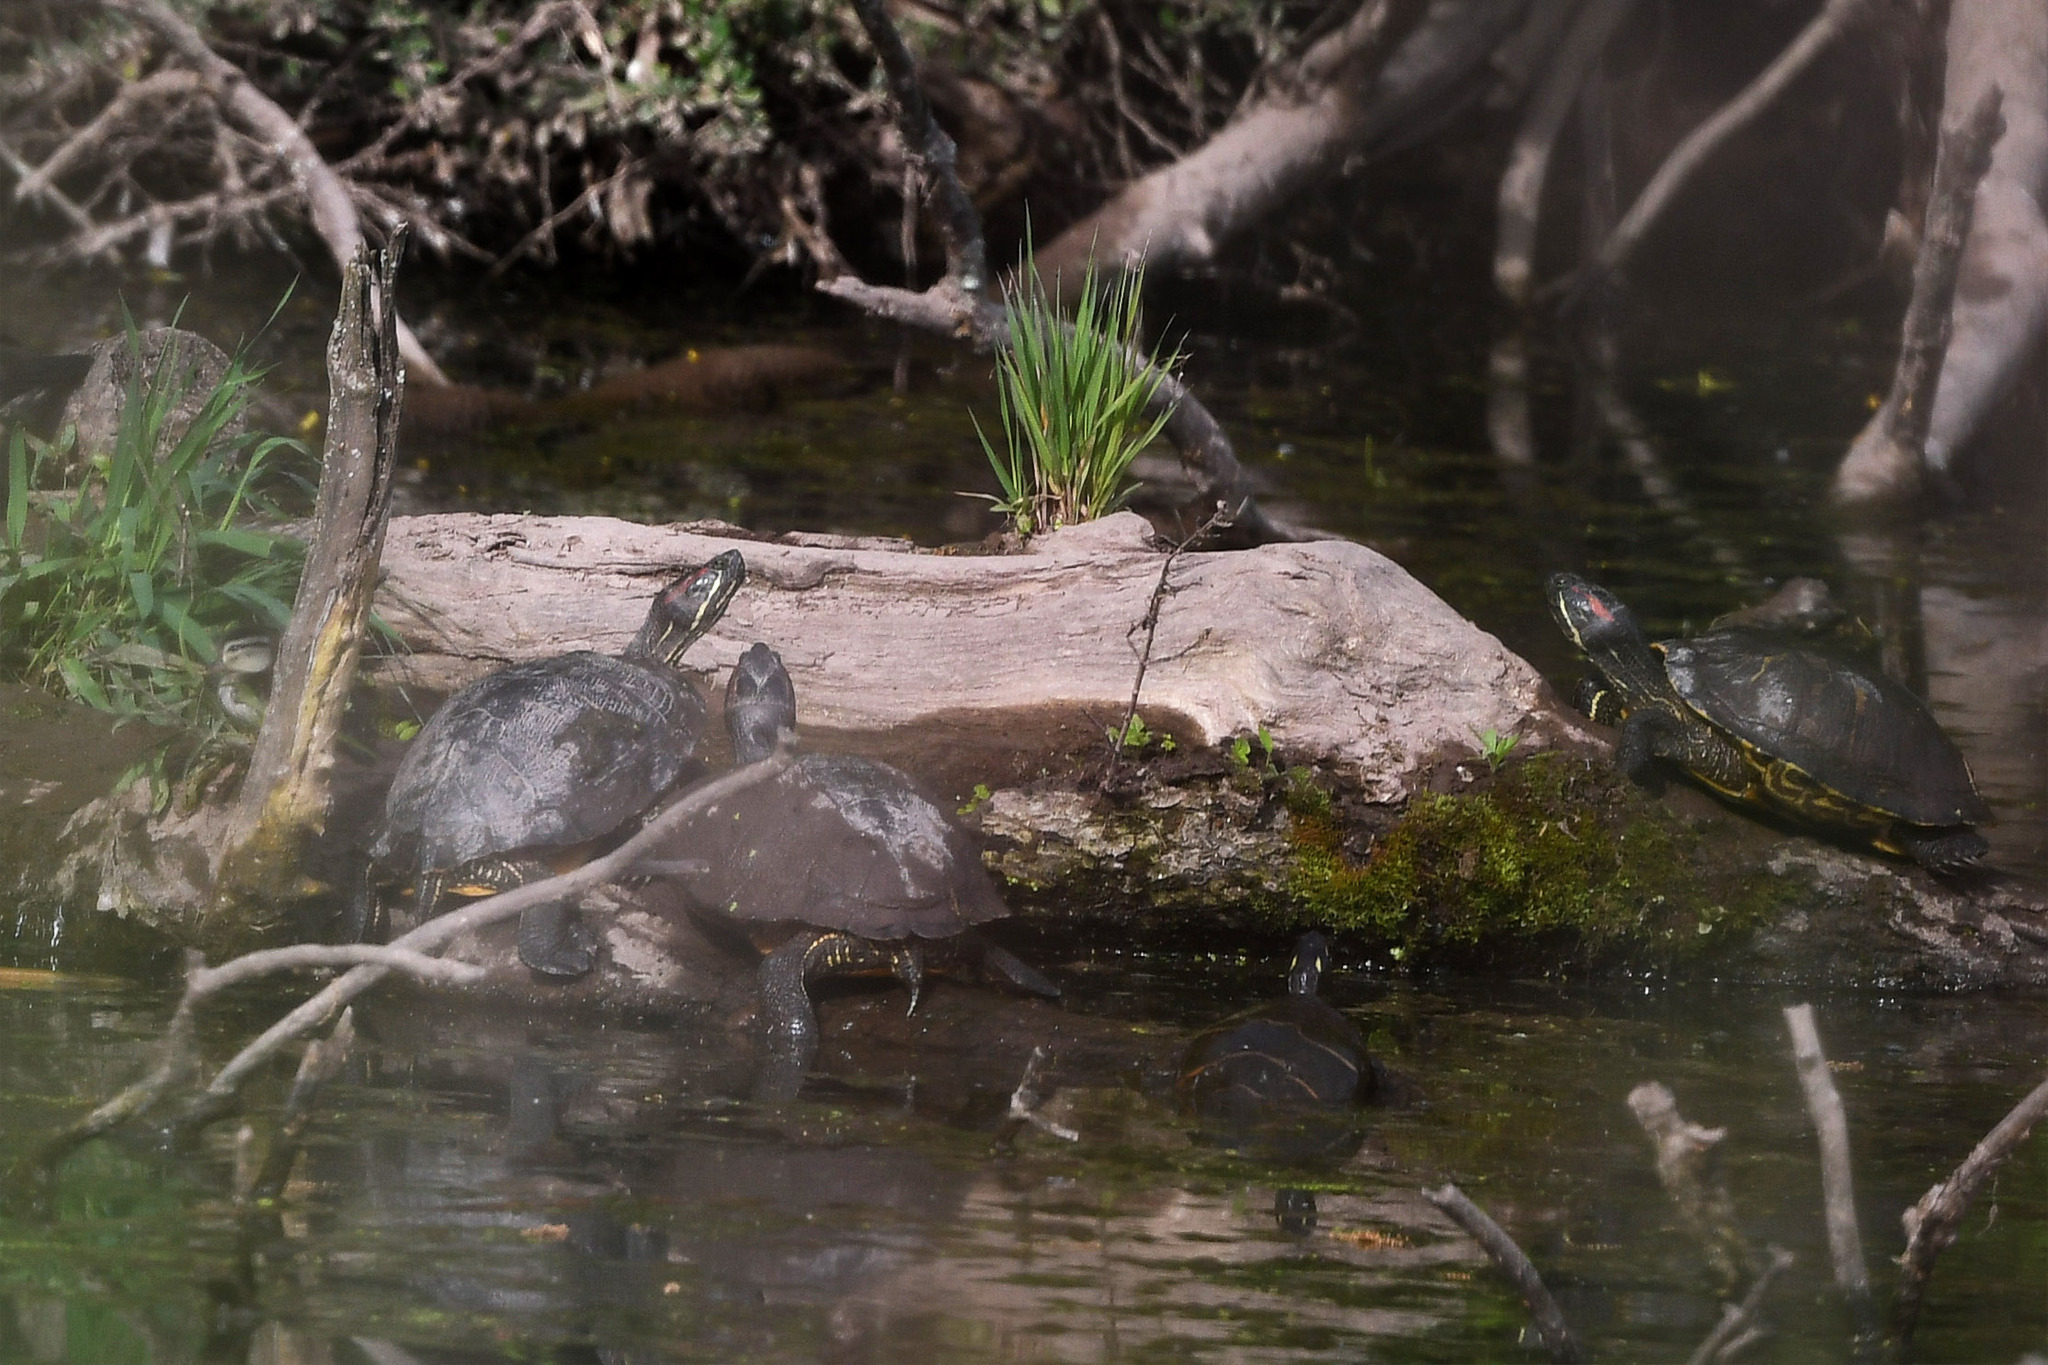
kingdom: Animalia
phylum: Chordata
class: Testudines
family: Emydidae
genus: Trachemys
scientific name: Trachemys scripta
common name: Slider
